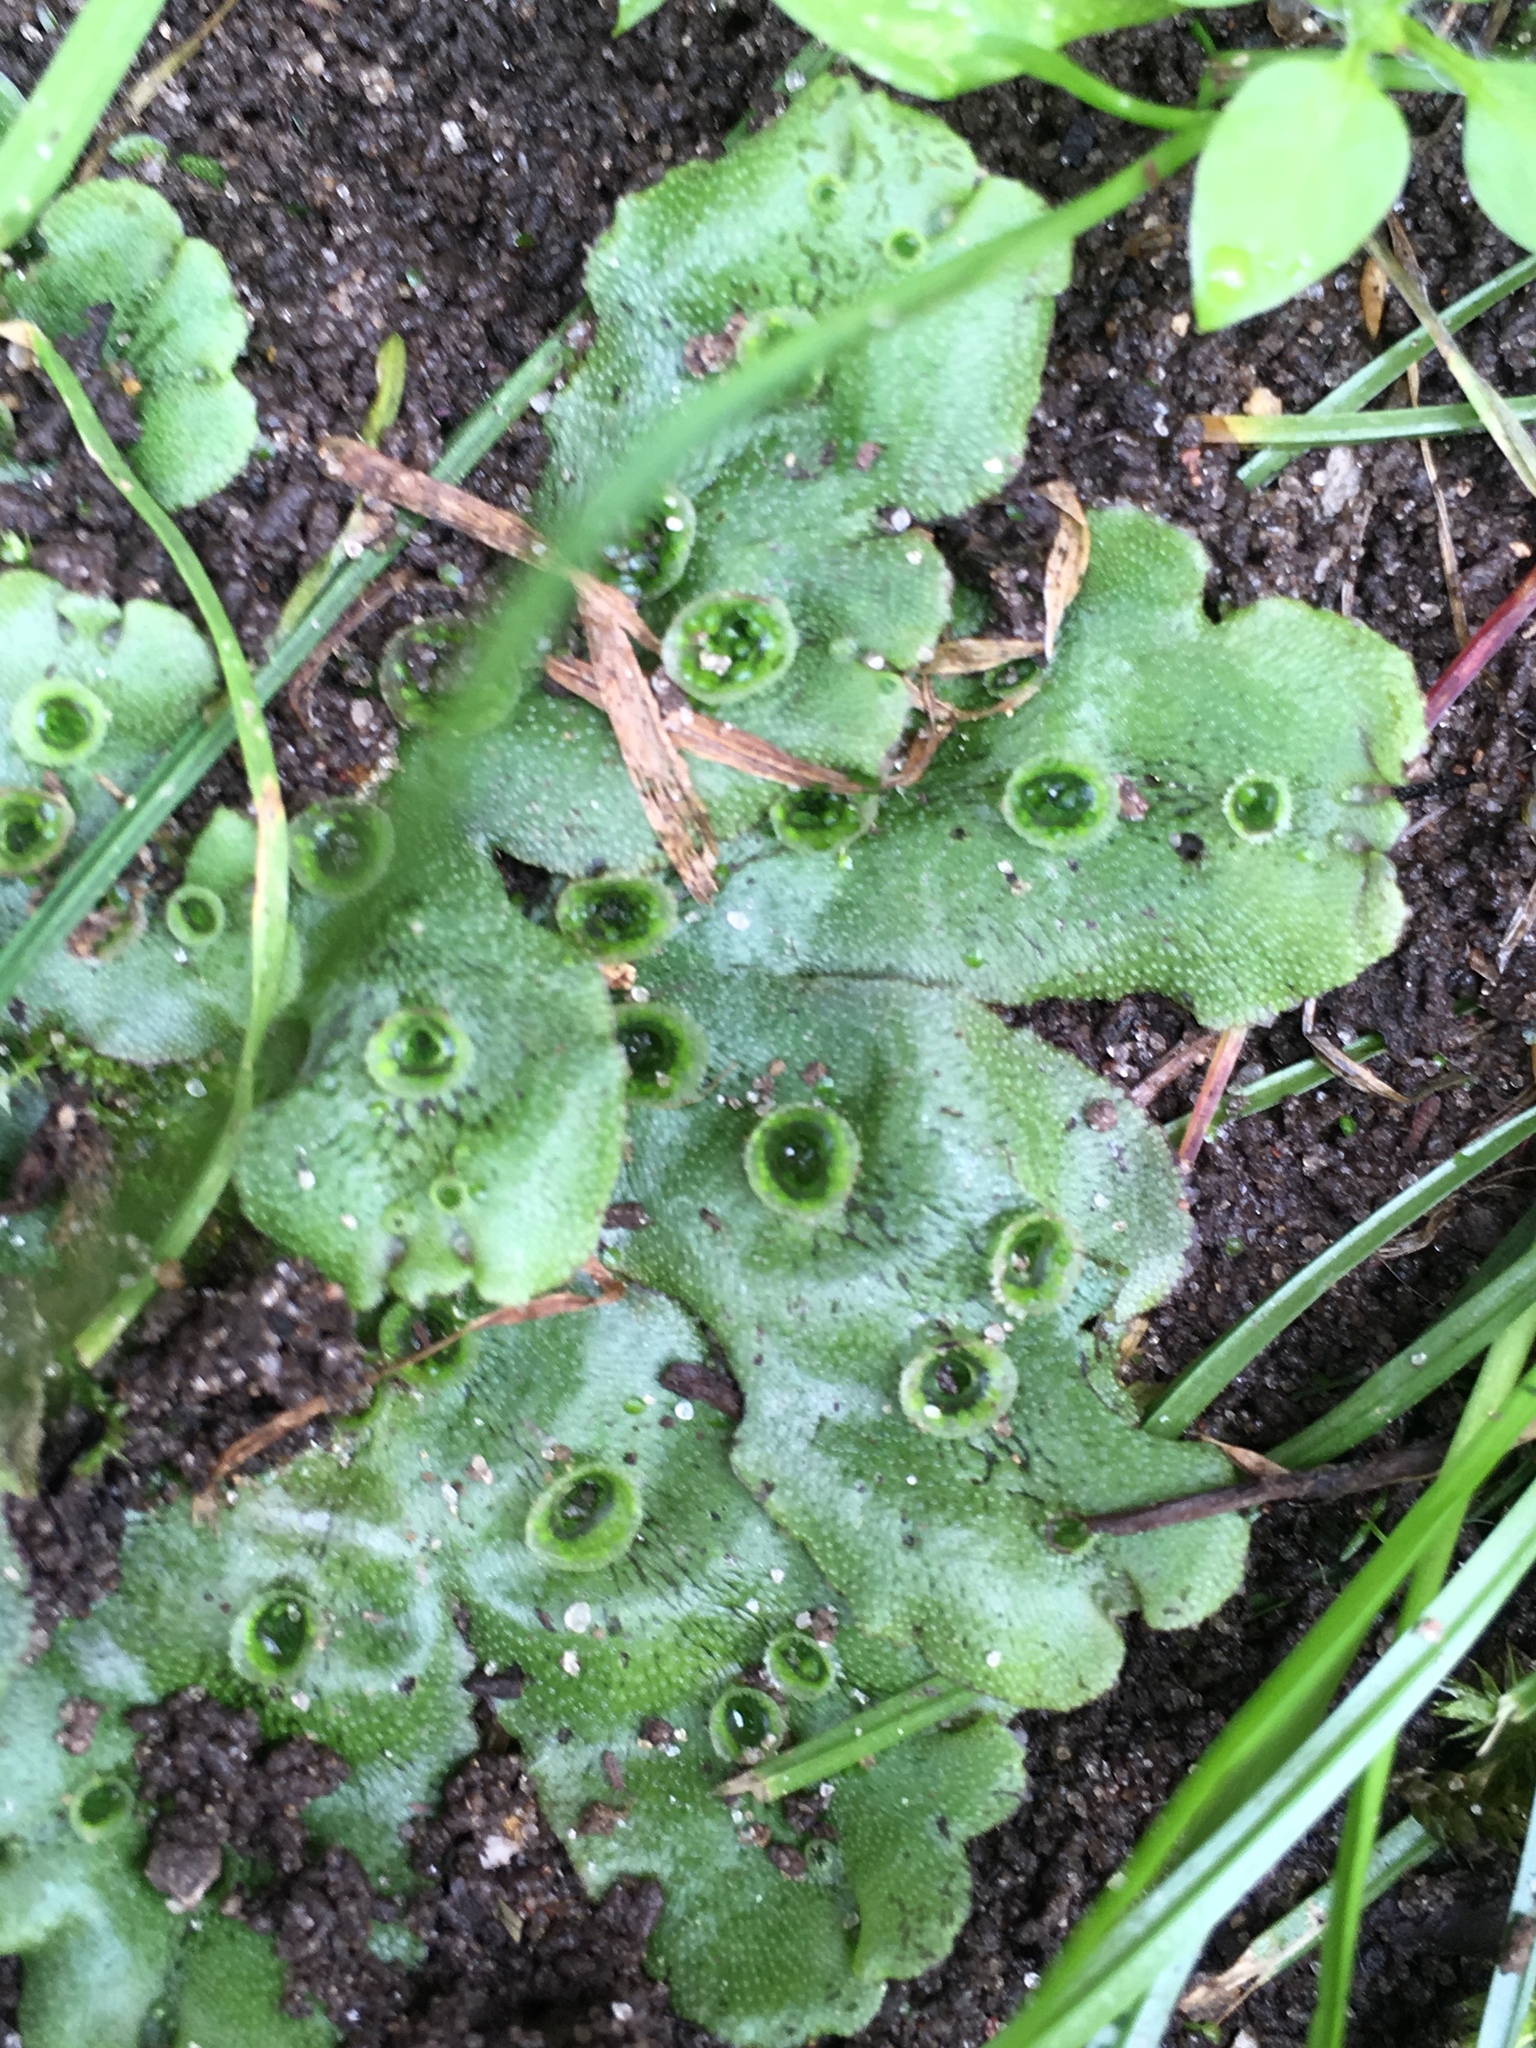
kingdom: Plantae
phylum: Marchantiophyta
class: Marchantiopsida
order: Marchantiales
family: Marchantiaceae
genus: Marchantia
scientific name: Marchantia polymorpha
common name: Common liverwort
